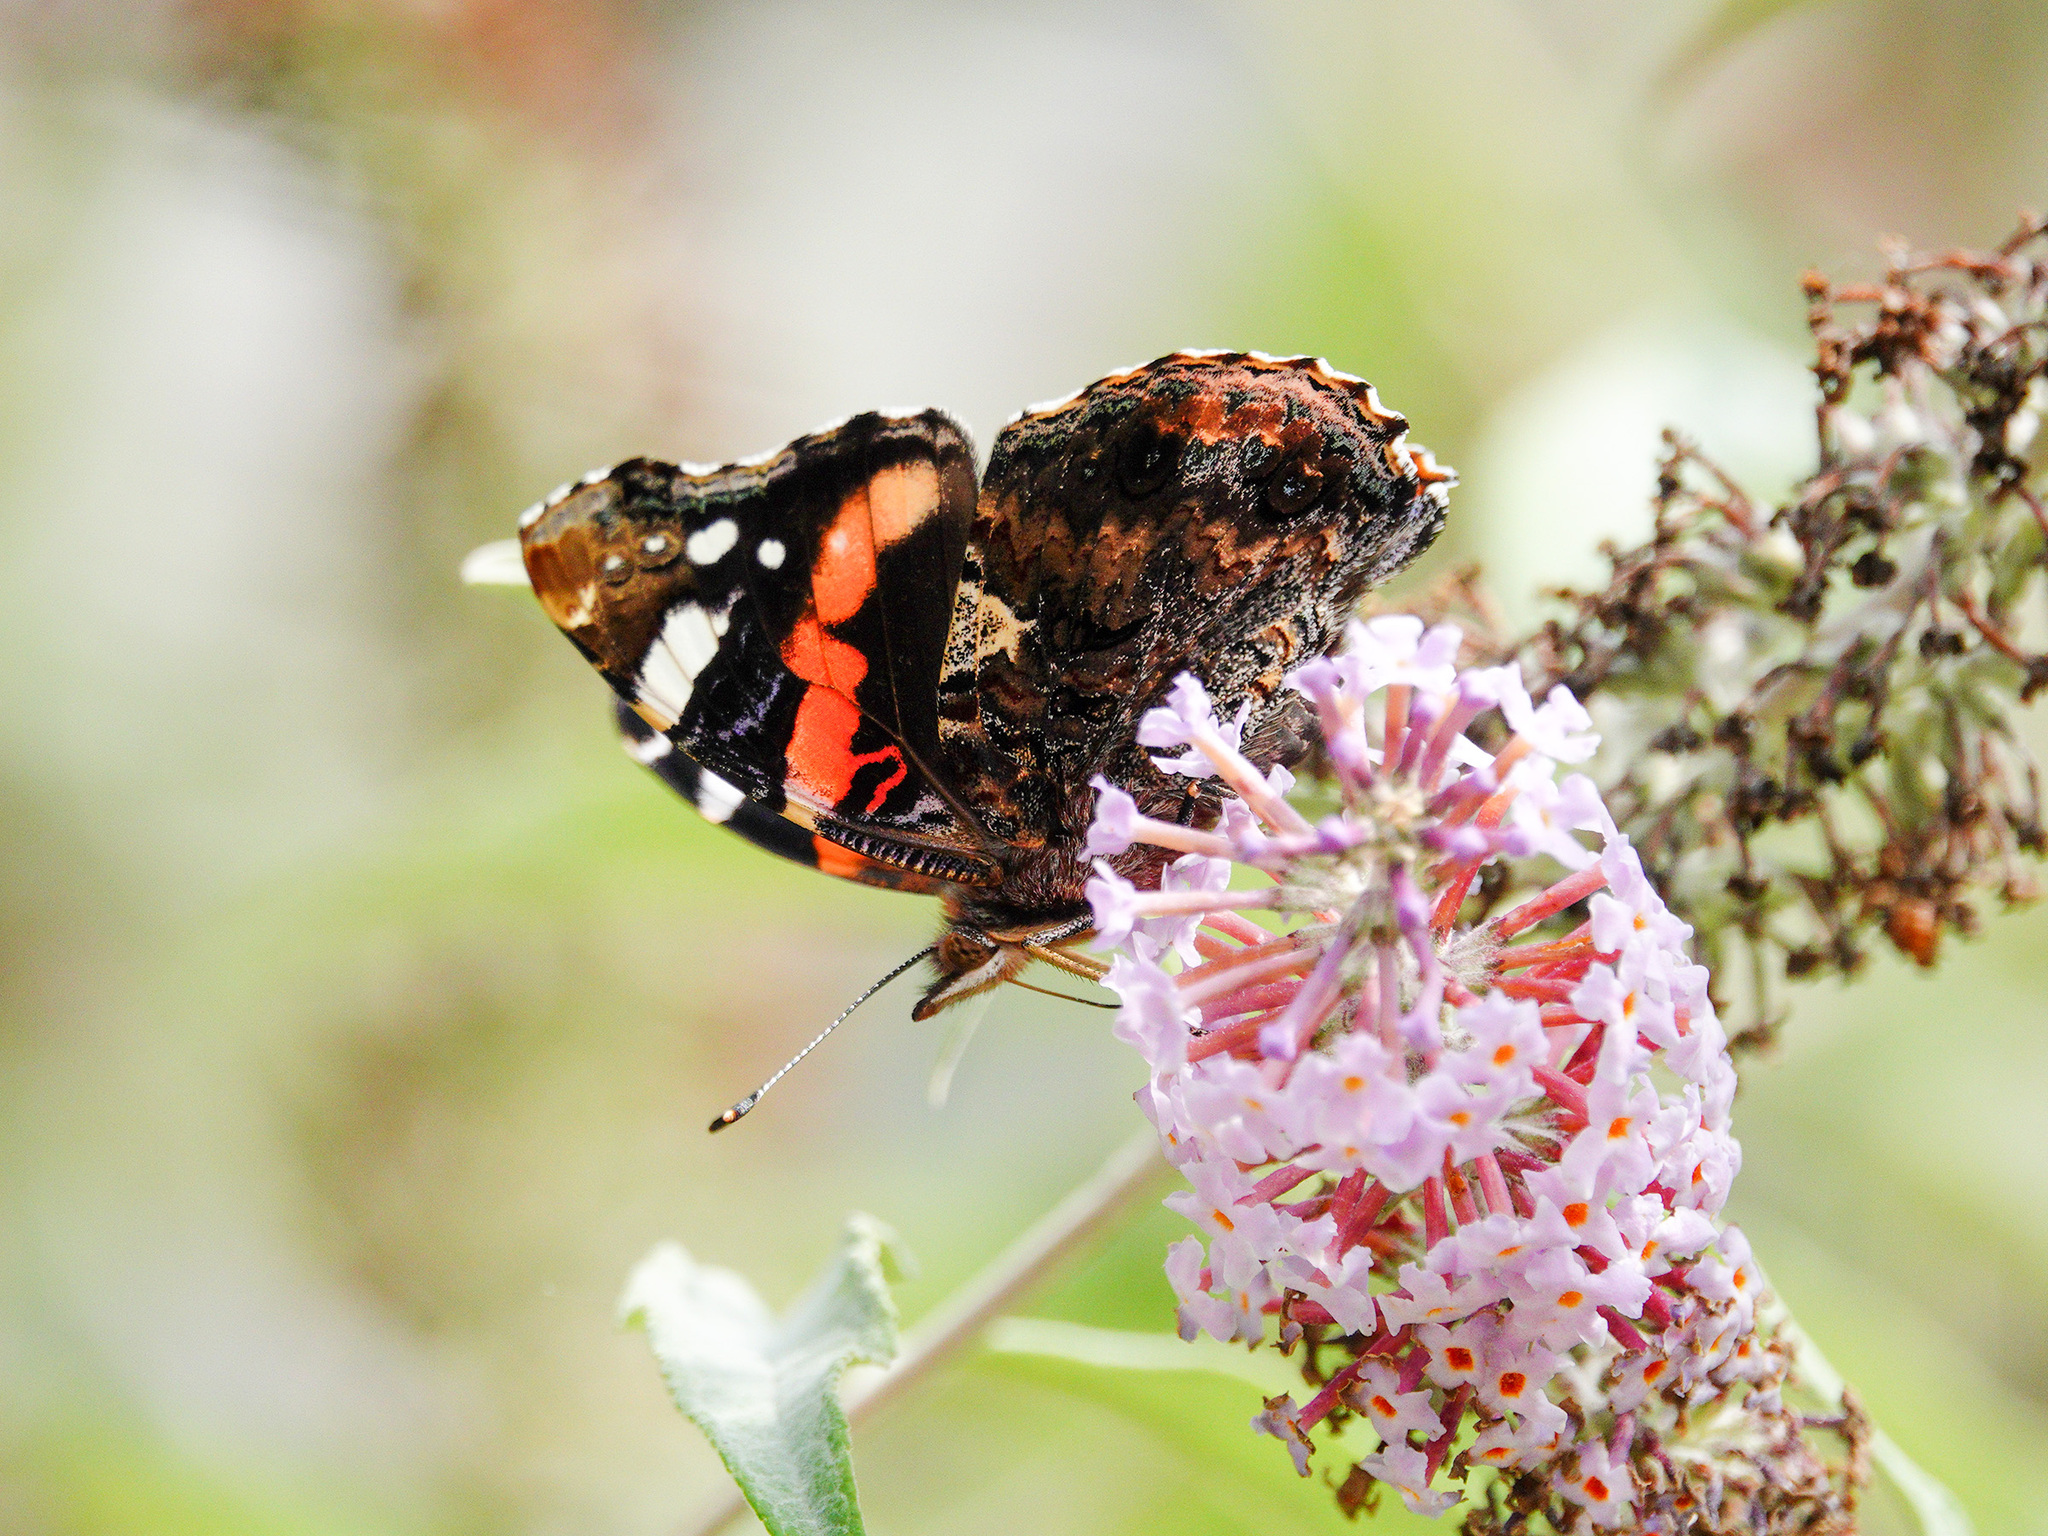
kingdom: Animalia
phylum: Arthropoda
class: Insecta
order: Lepidoptera
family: Nymphalidae
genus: Vanessa
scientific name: Vanessa atalanta
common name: Red admiral
